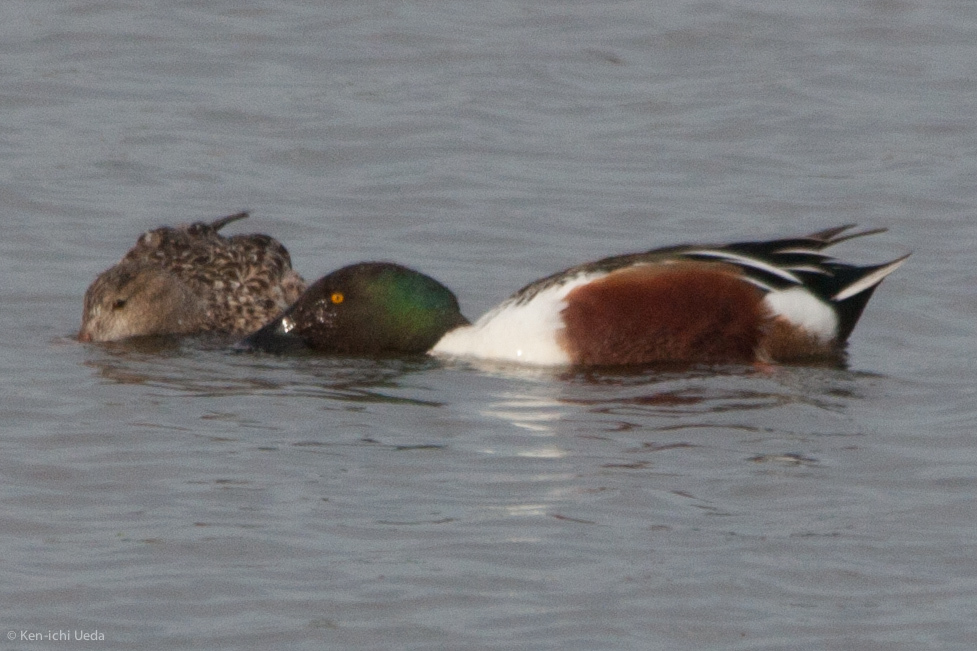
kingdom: Animalia
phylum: Chordata
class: Aves
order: Anseriformes
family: Anatidae
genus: Spatula
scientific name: Spatula clypeata
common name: Northern shoveler
